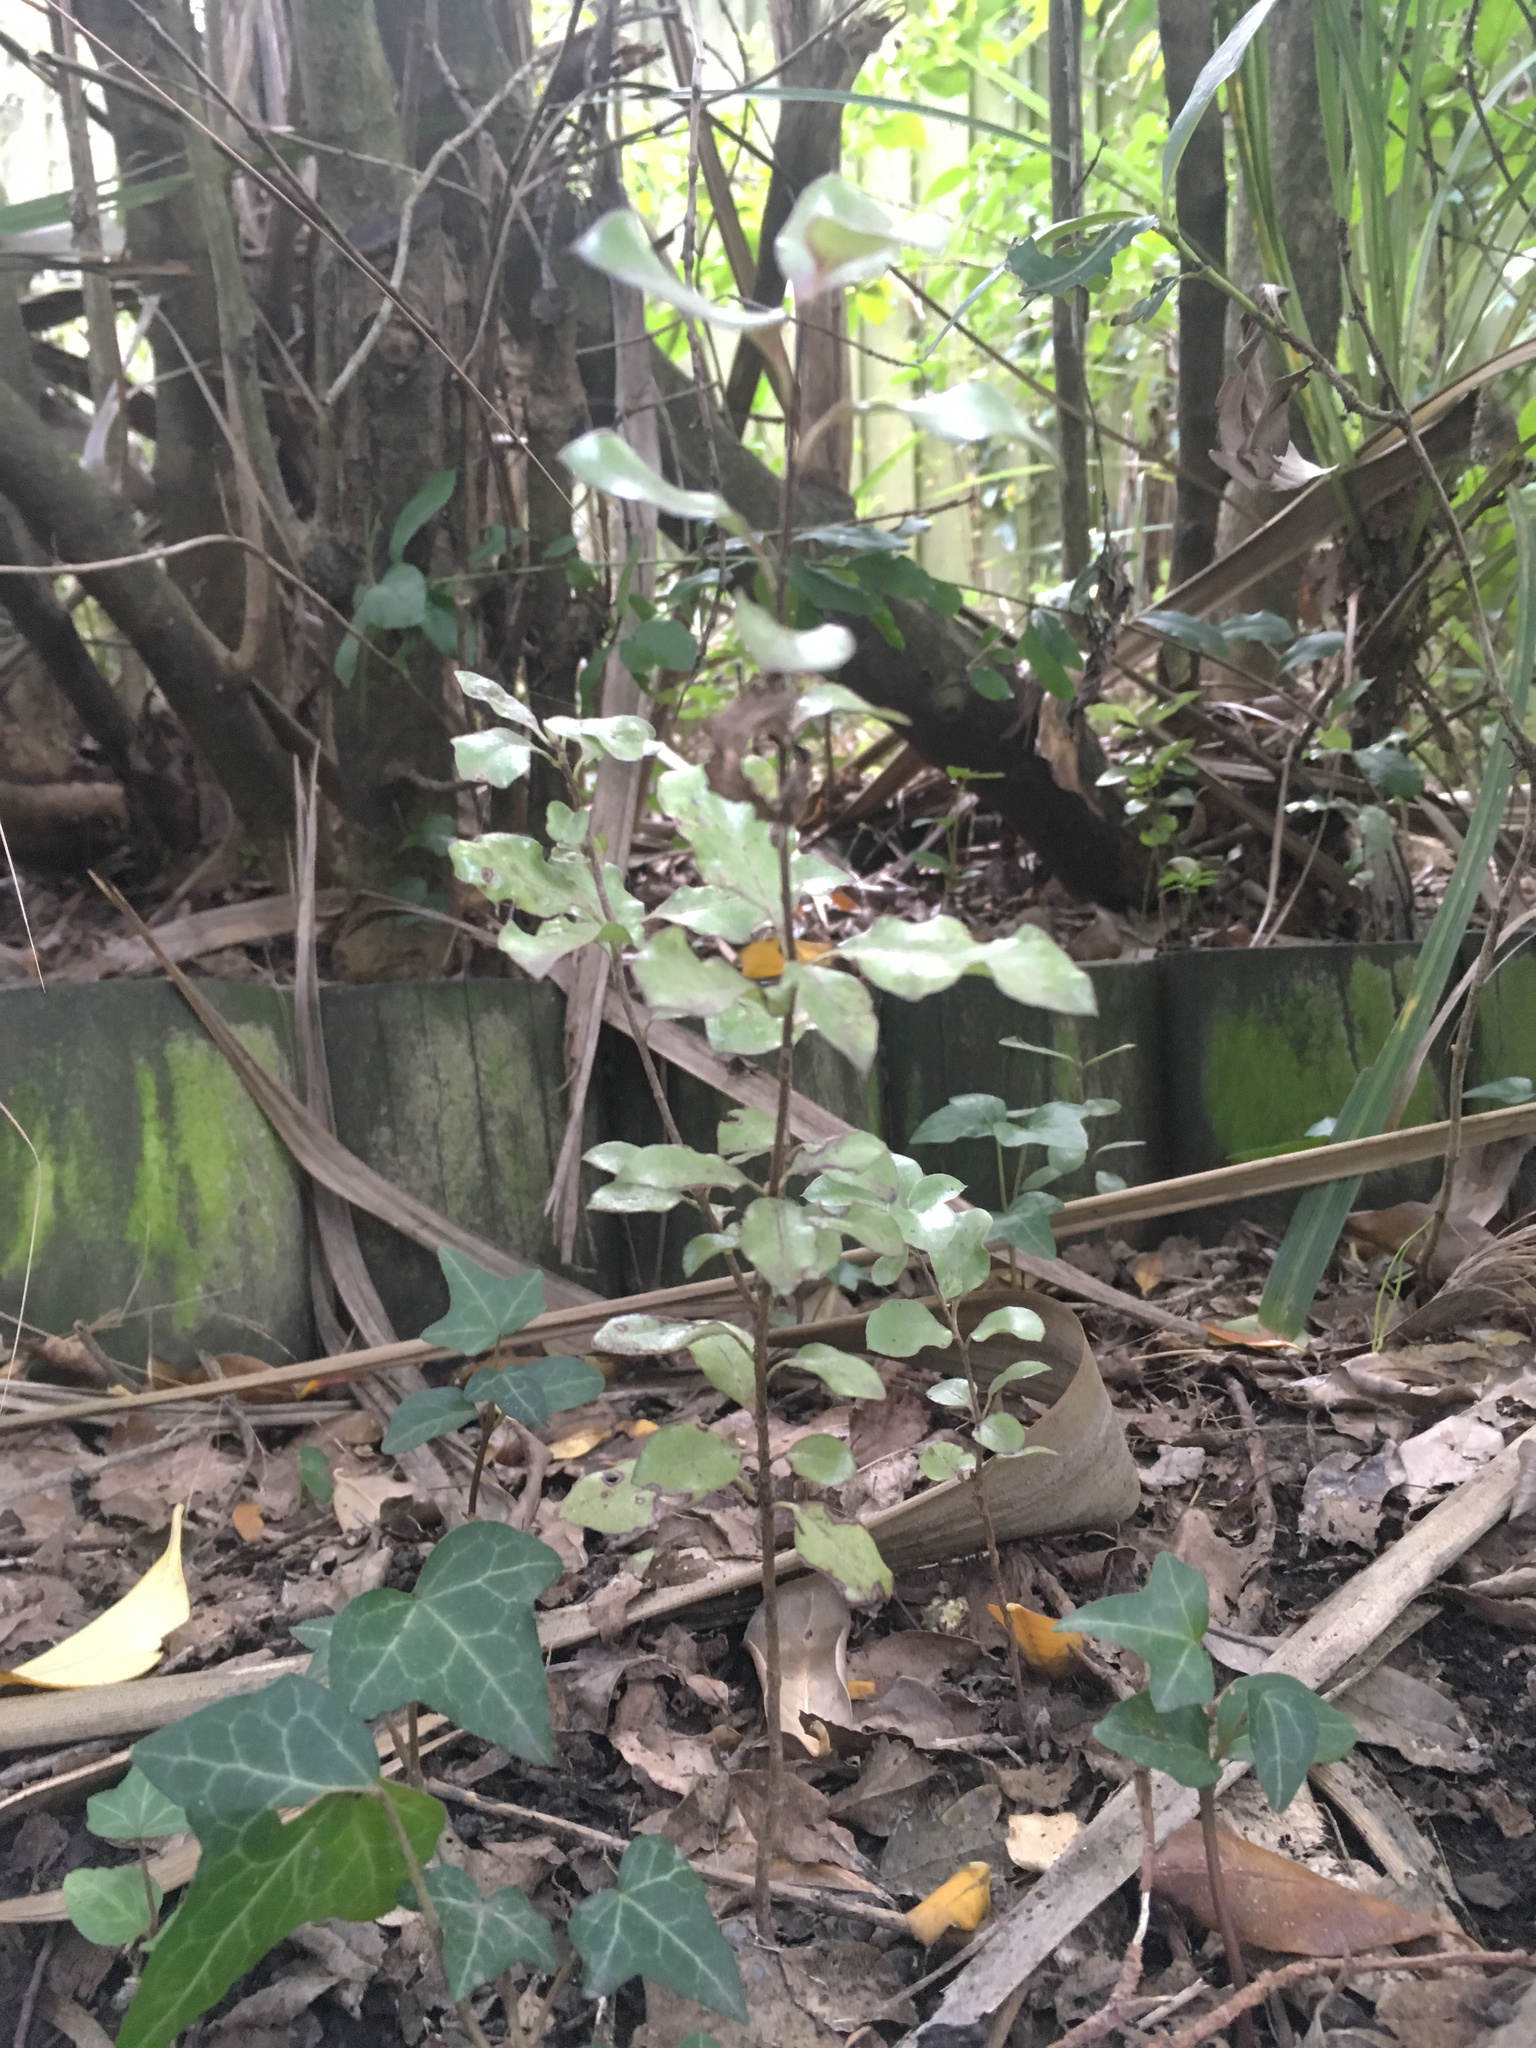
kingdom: Plantae
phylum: Tracheophyta
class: Magnoliopsida
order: Apiales
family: Pittosporaceae
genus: Pittosporum
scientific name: Pittosporum tenuifolium
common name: Kohuhu
